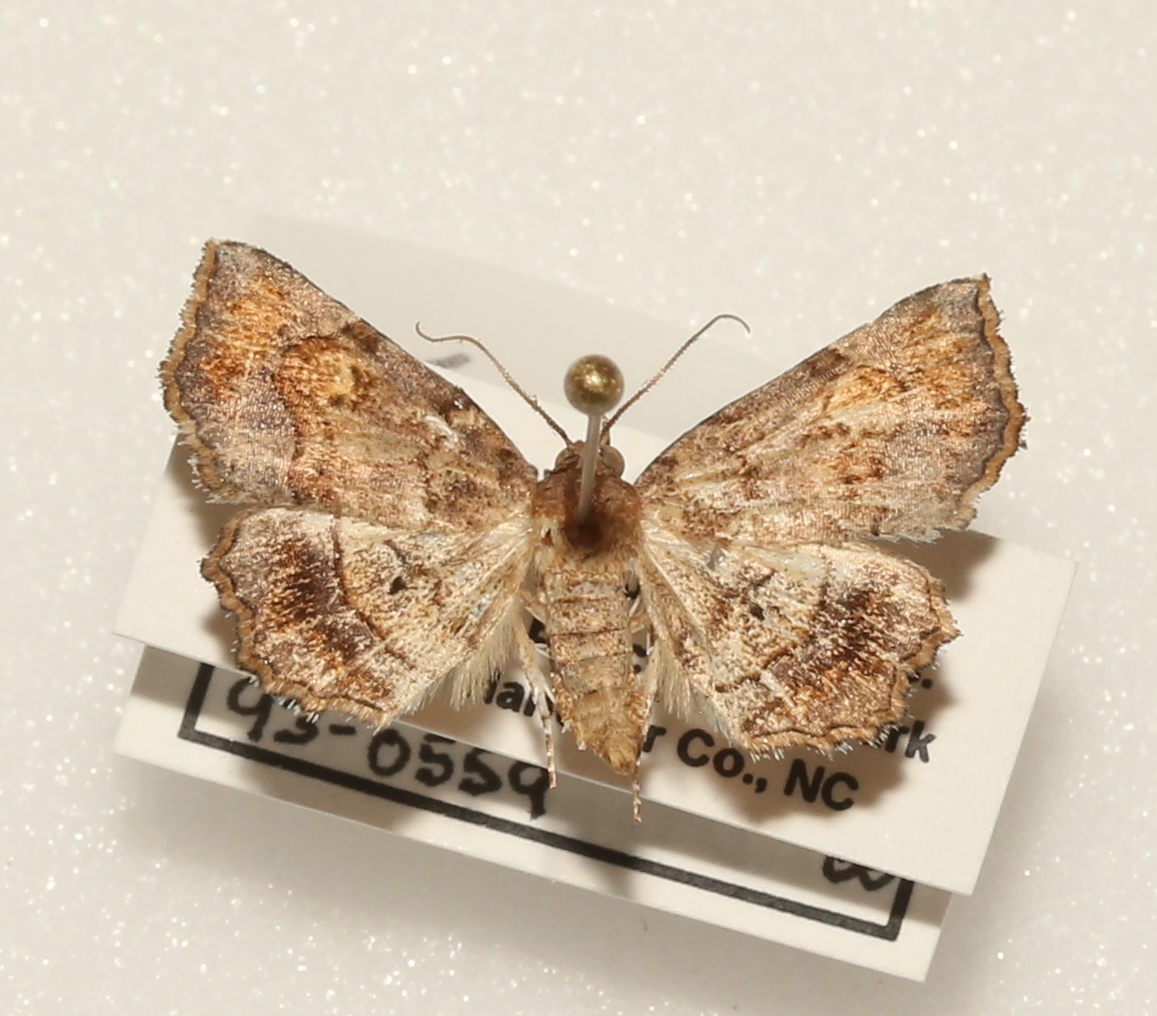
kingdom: Animalia
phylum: Arthropoda
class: Insecta
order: Lepidoptera
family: Erebidae
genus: Pangrapta
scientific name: Pangrapta decoralis
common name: Decorated owlet
